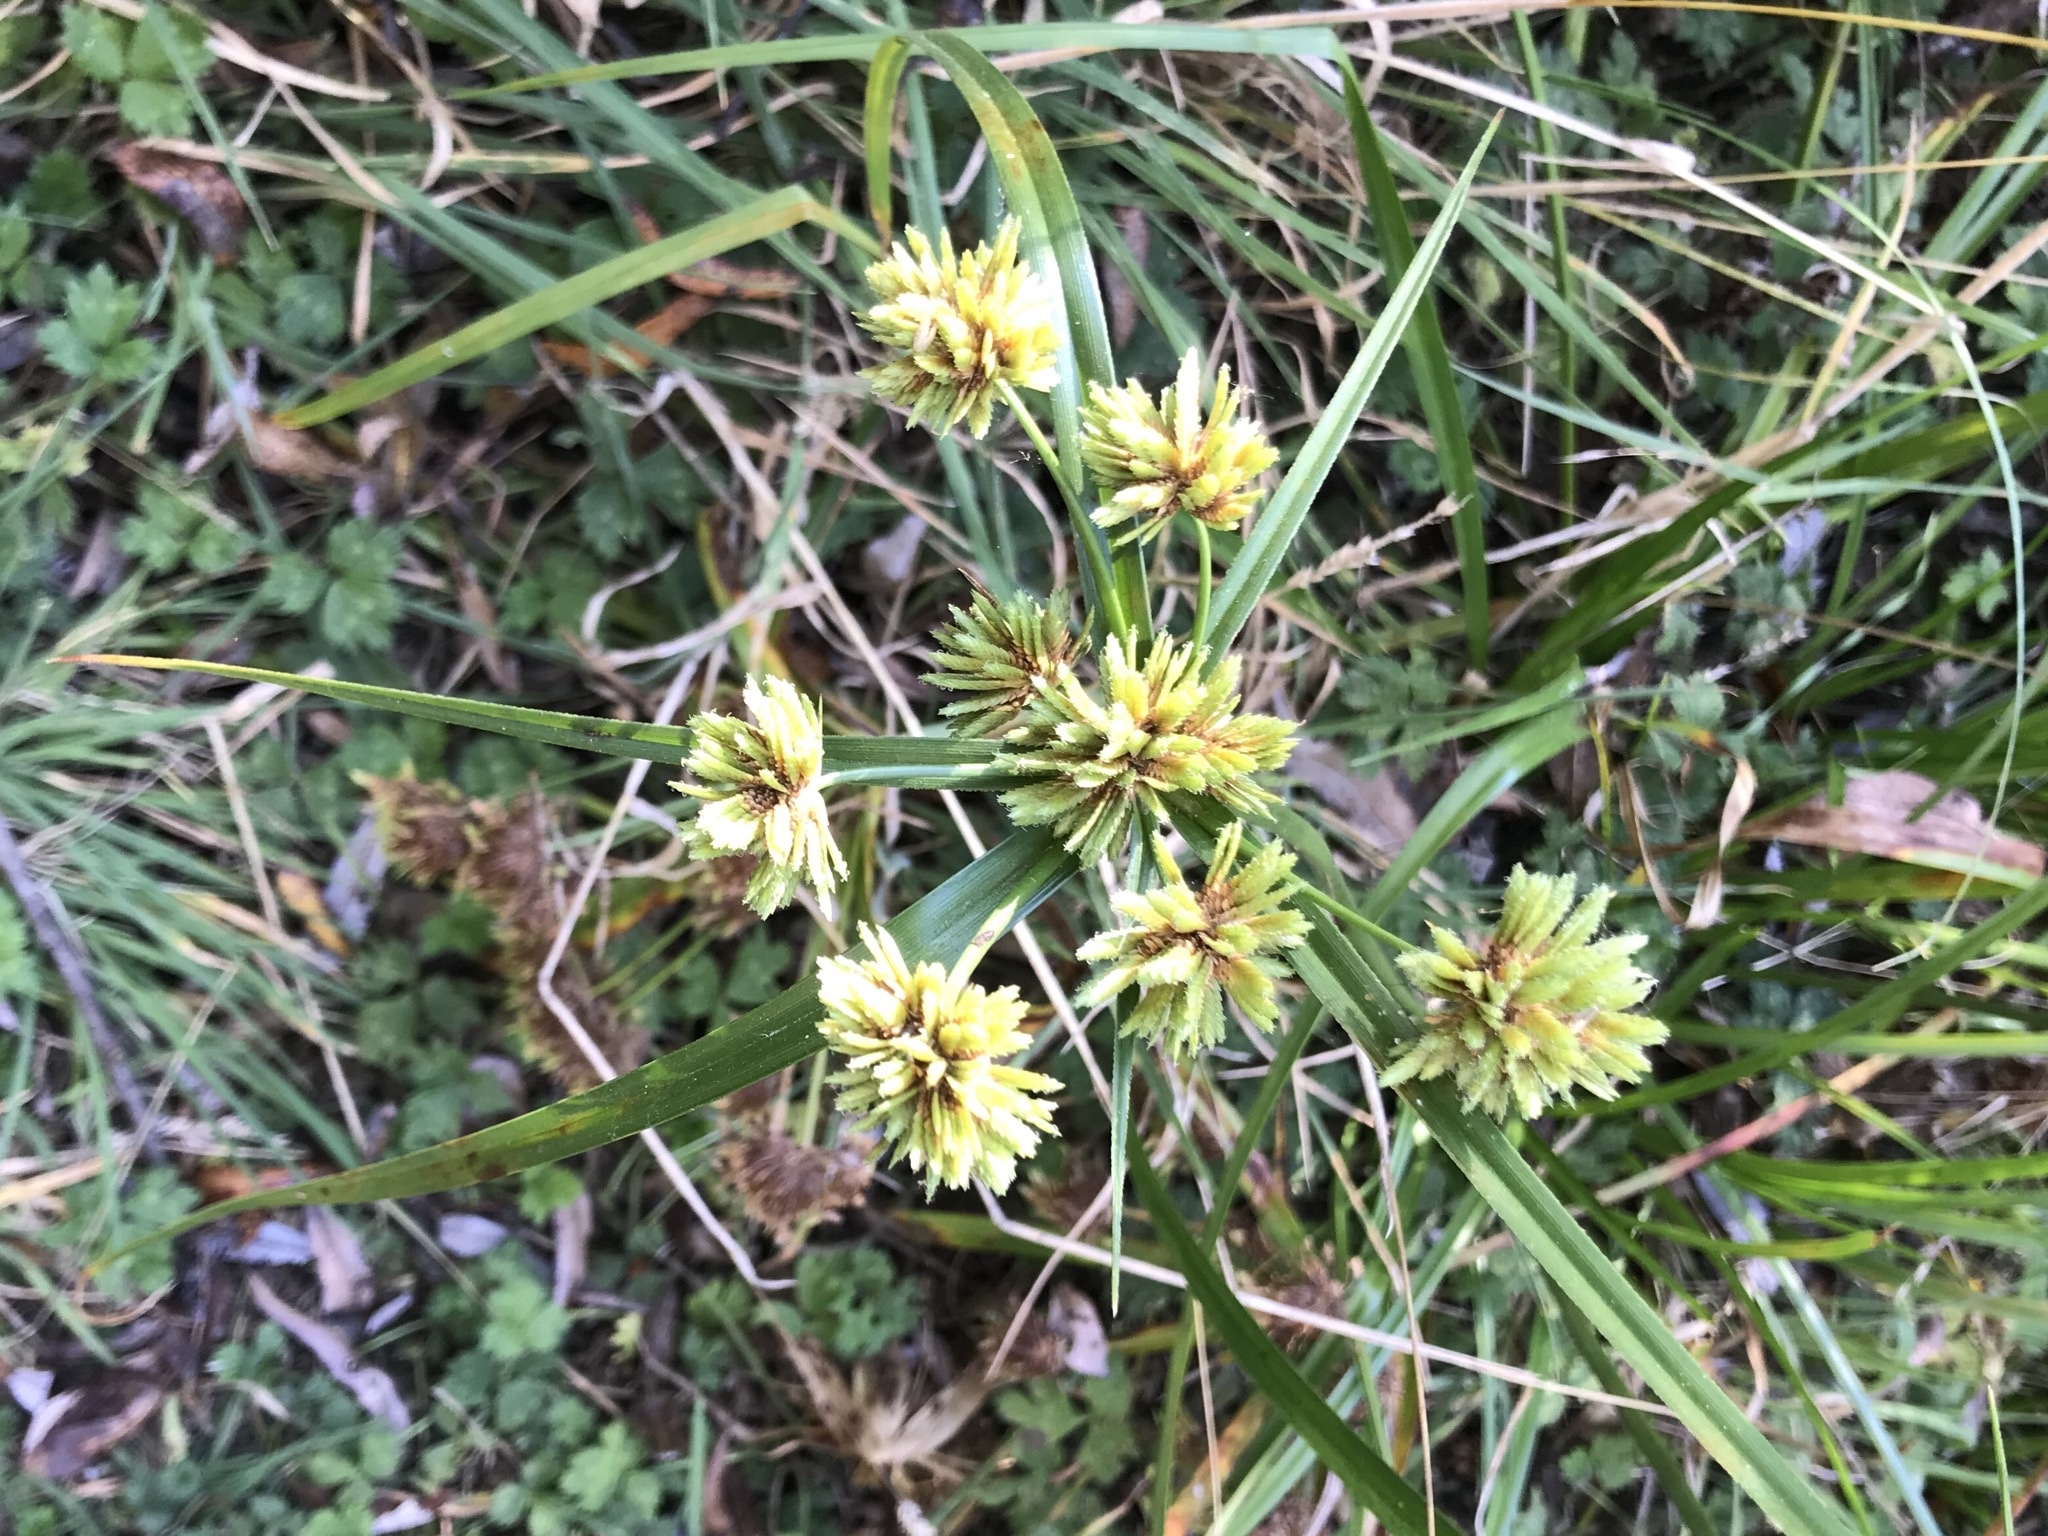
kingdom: Plantae
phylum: Tracheophyta
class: Liliopsida
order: Poales
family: Cyperaceae
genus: Cyperus
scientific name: Cyperus eragrostis
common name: Tall flatsedge
